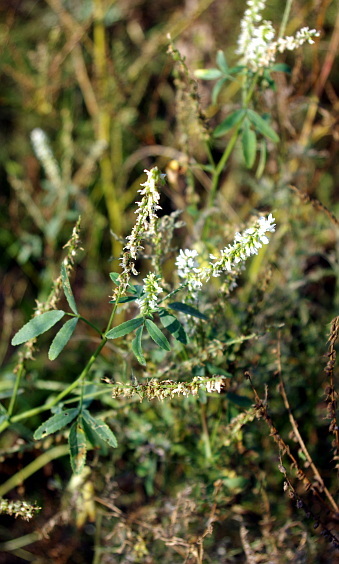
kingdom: Plantae
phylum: Tracheophyta
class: Magnoliopsida
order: Fabales
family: Fabaceae
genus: Melilotus
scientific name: Melilotus albus
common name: White melilot
